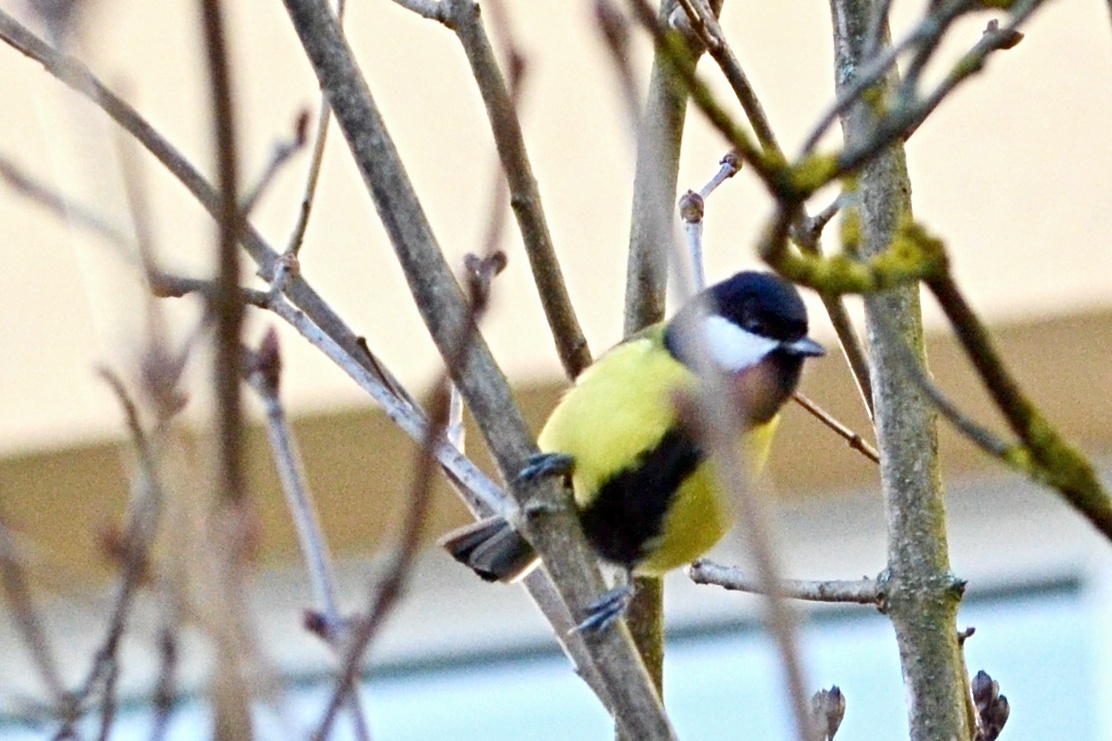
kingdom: Animalia
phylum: Chordata
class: Aves
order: Passeriformes
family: Paridae
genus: Parus
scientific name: Parus major
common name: Great tit
